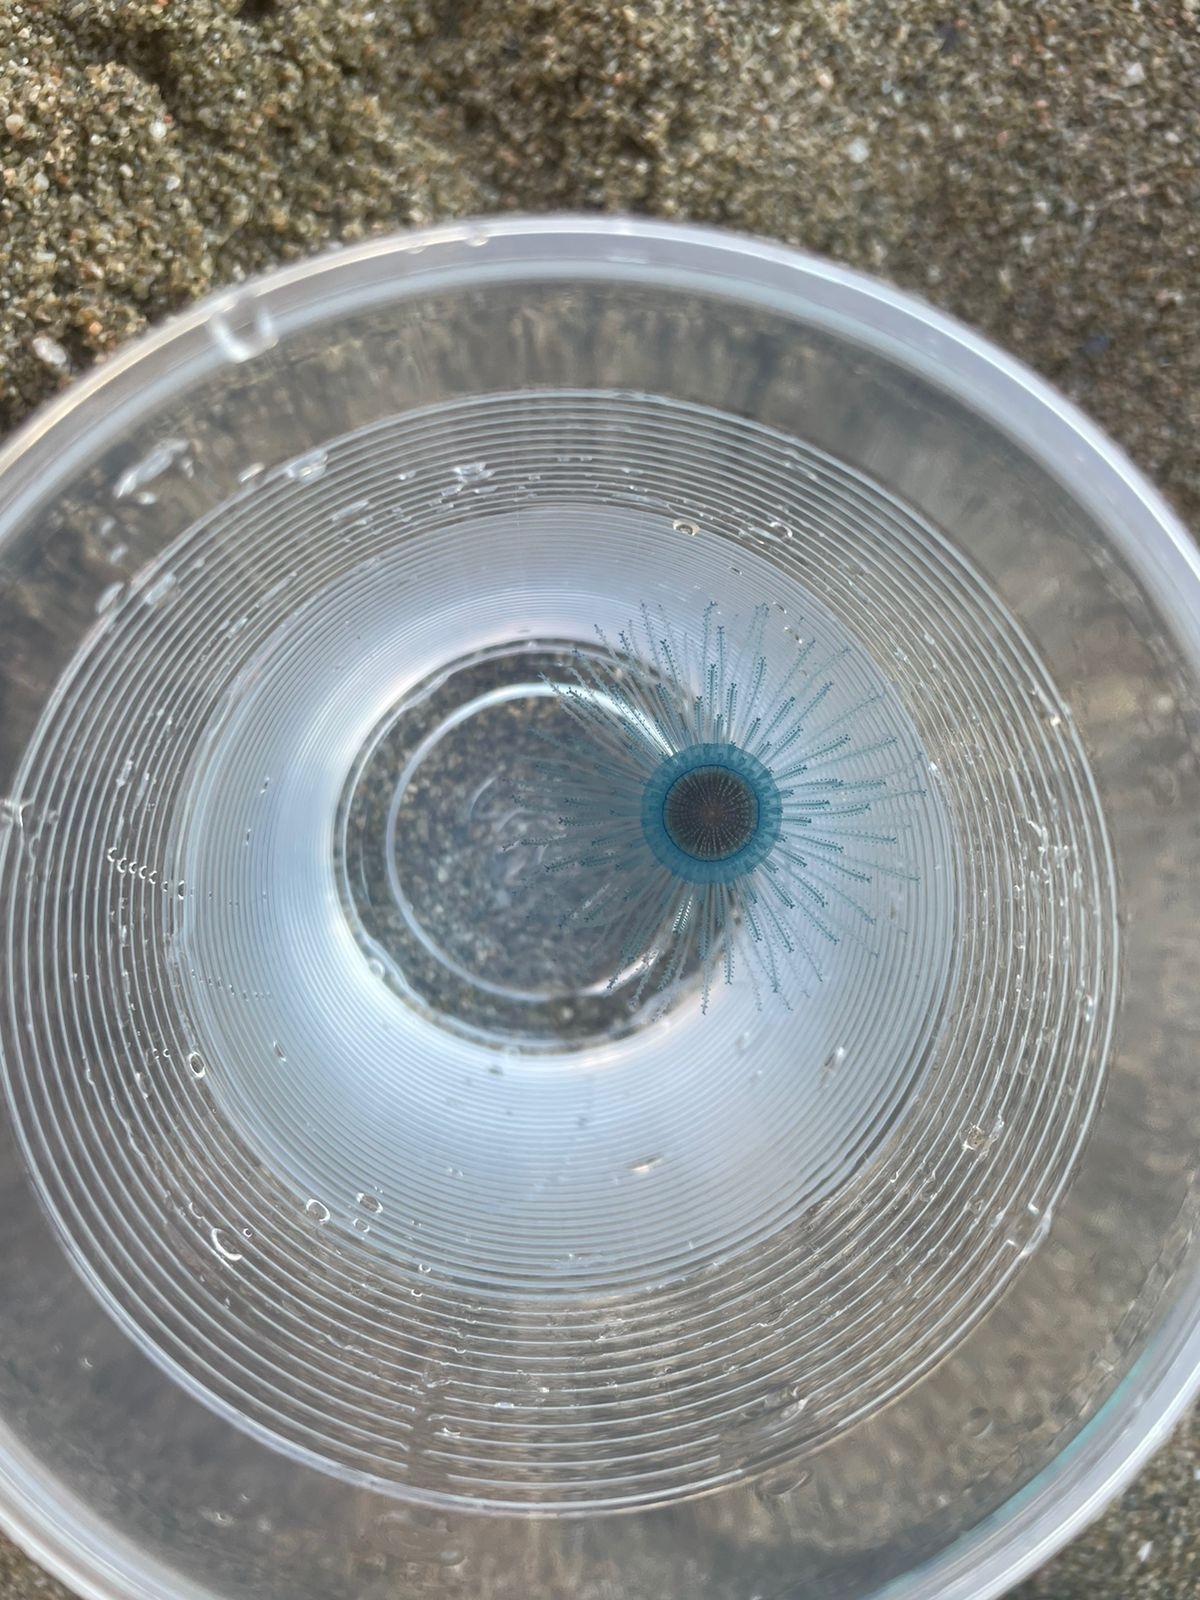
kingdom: Animalia
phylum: Cnidaria
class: Hydrozoa
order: Anthoathecata
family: Porpitidae
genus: Porpita
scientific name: Porpita porpita
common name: Blue button
